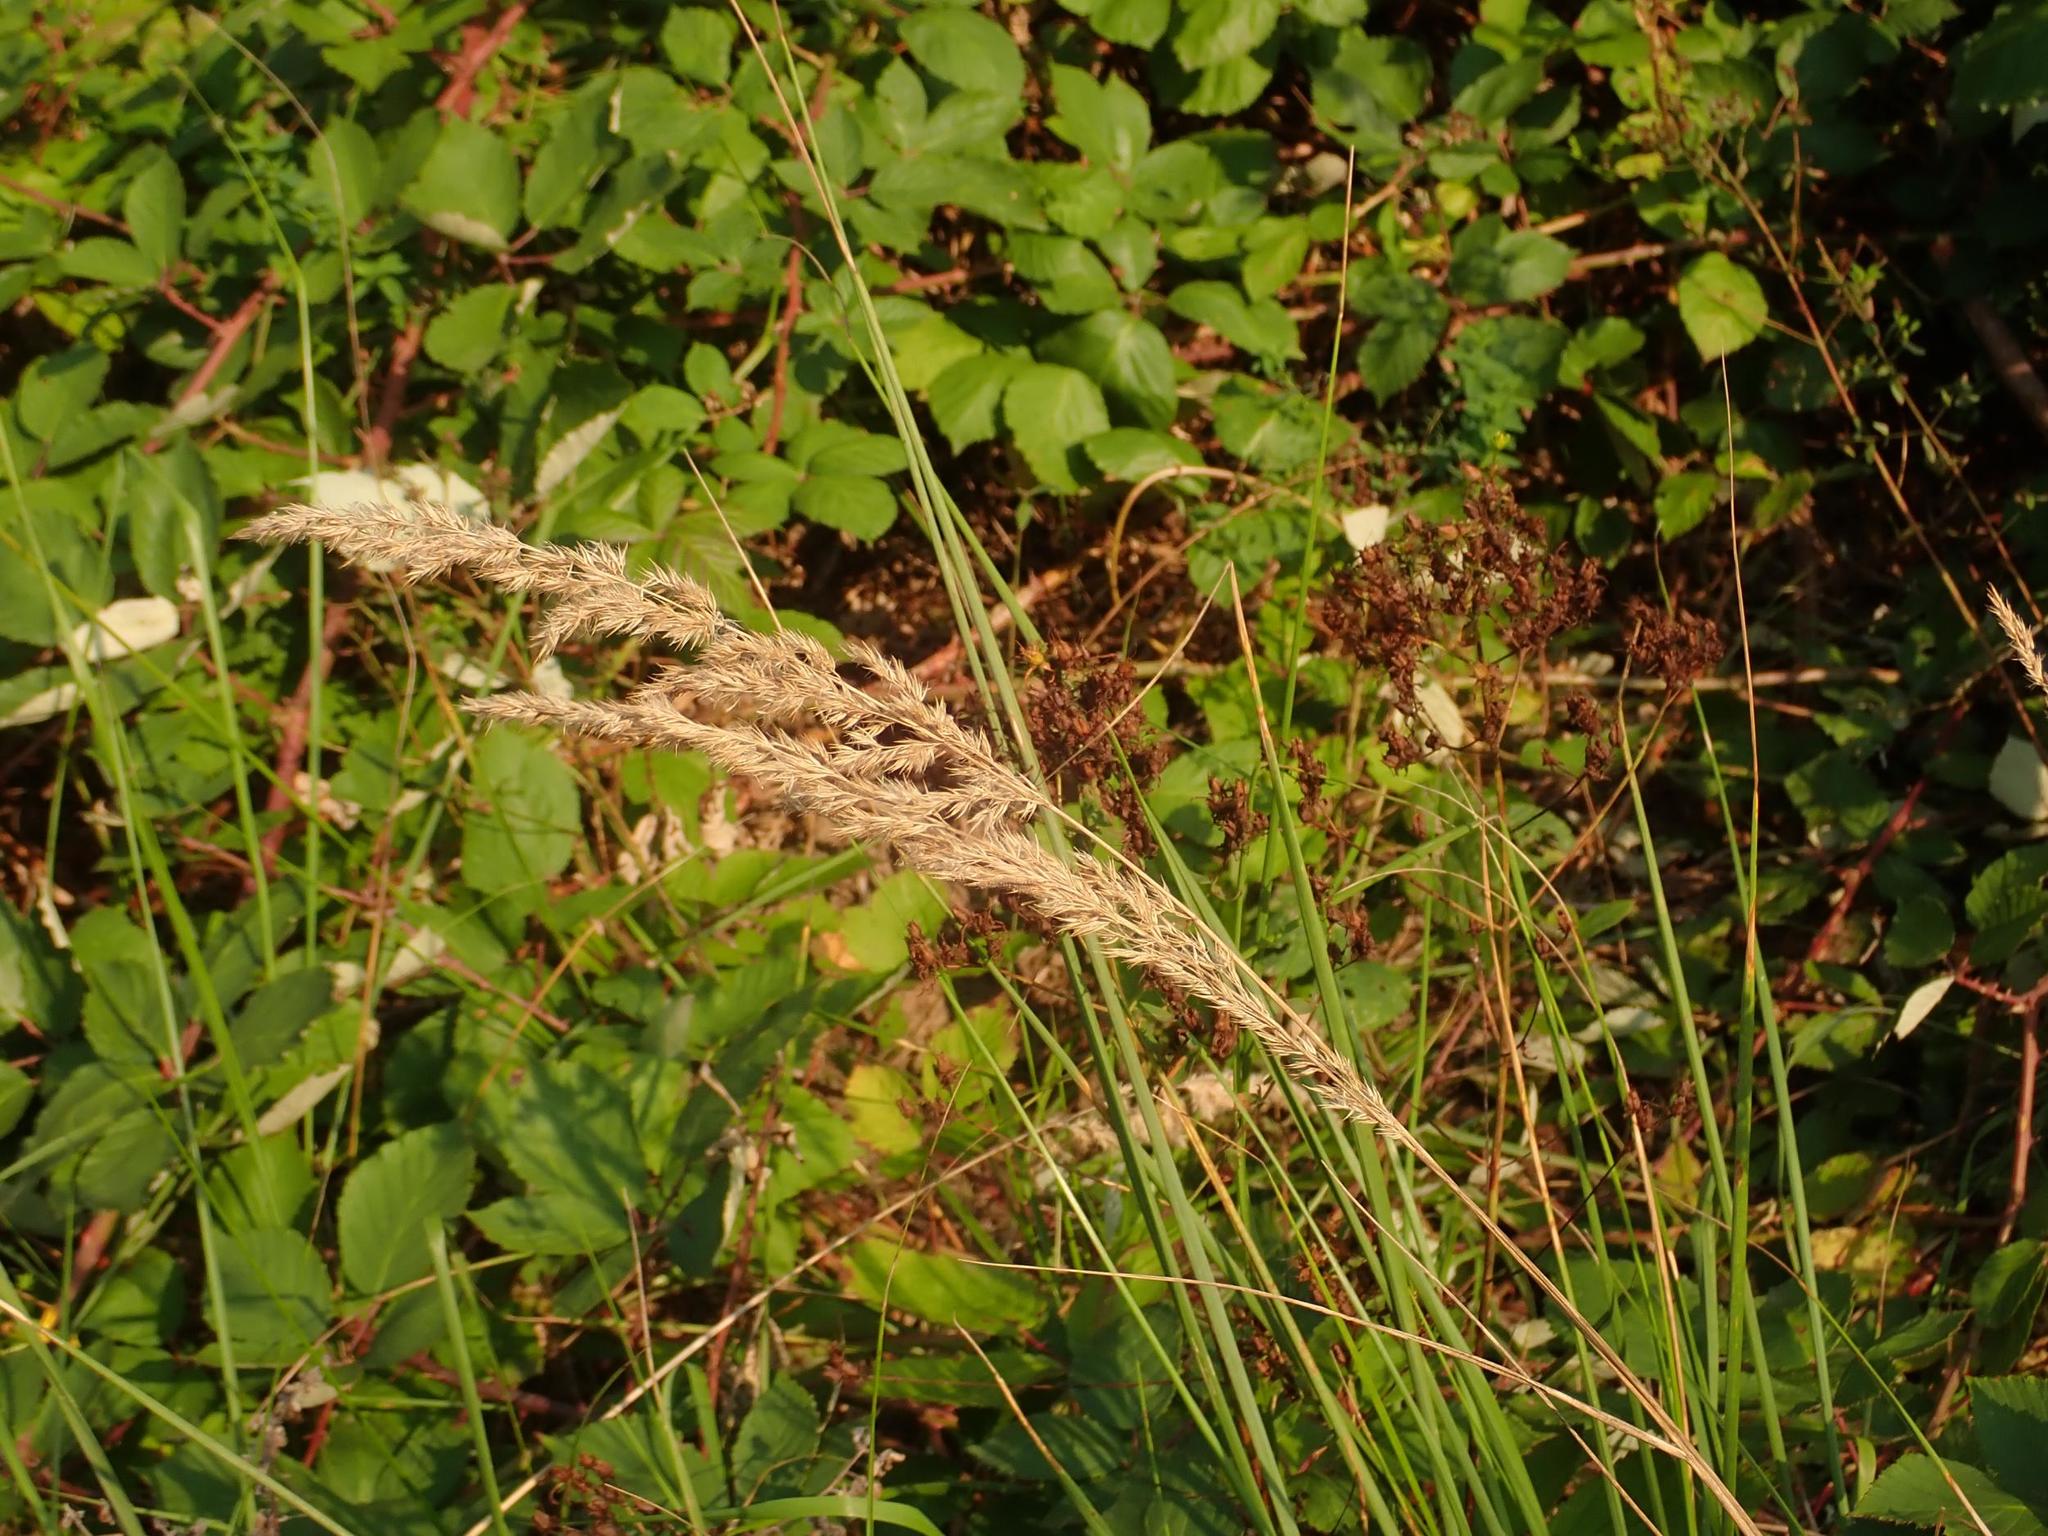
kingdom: Plantae
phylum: Tracheophyta
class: Liliopsida
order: Poales
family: Poaceae
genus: Calamagrostis
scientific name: Calamagrostis epigejos
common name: Wood small-reed
